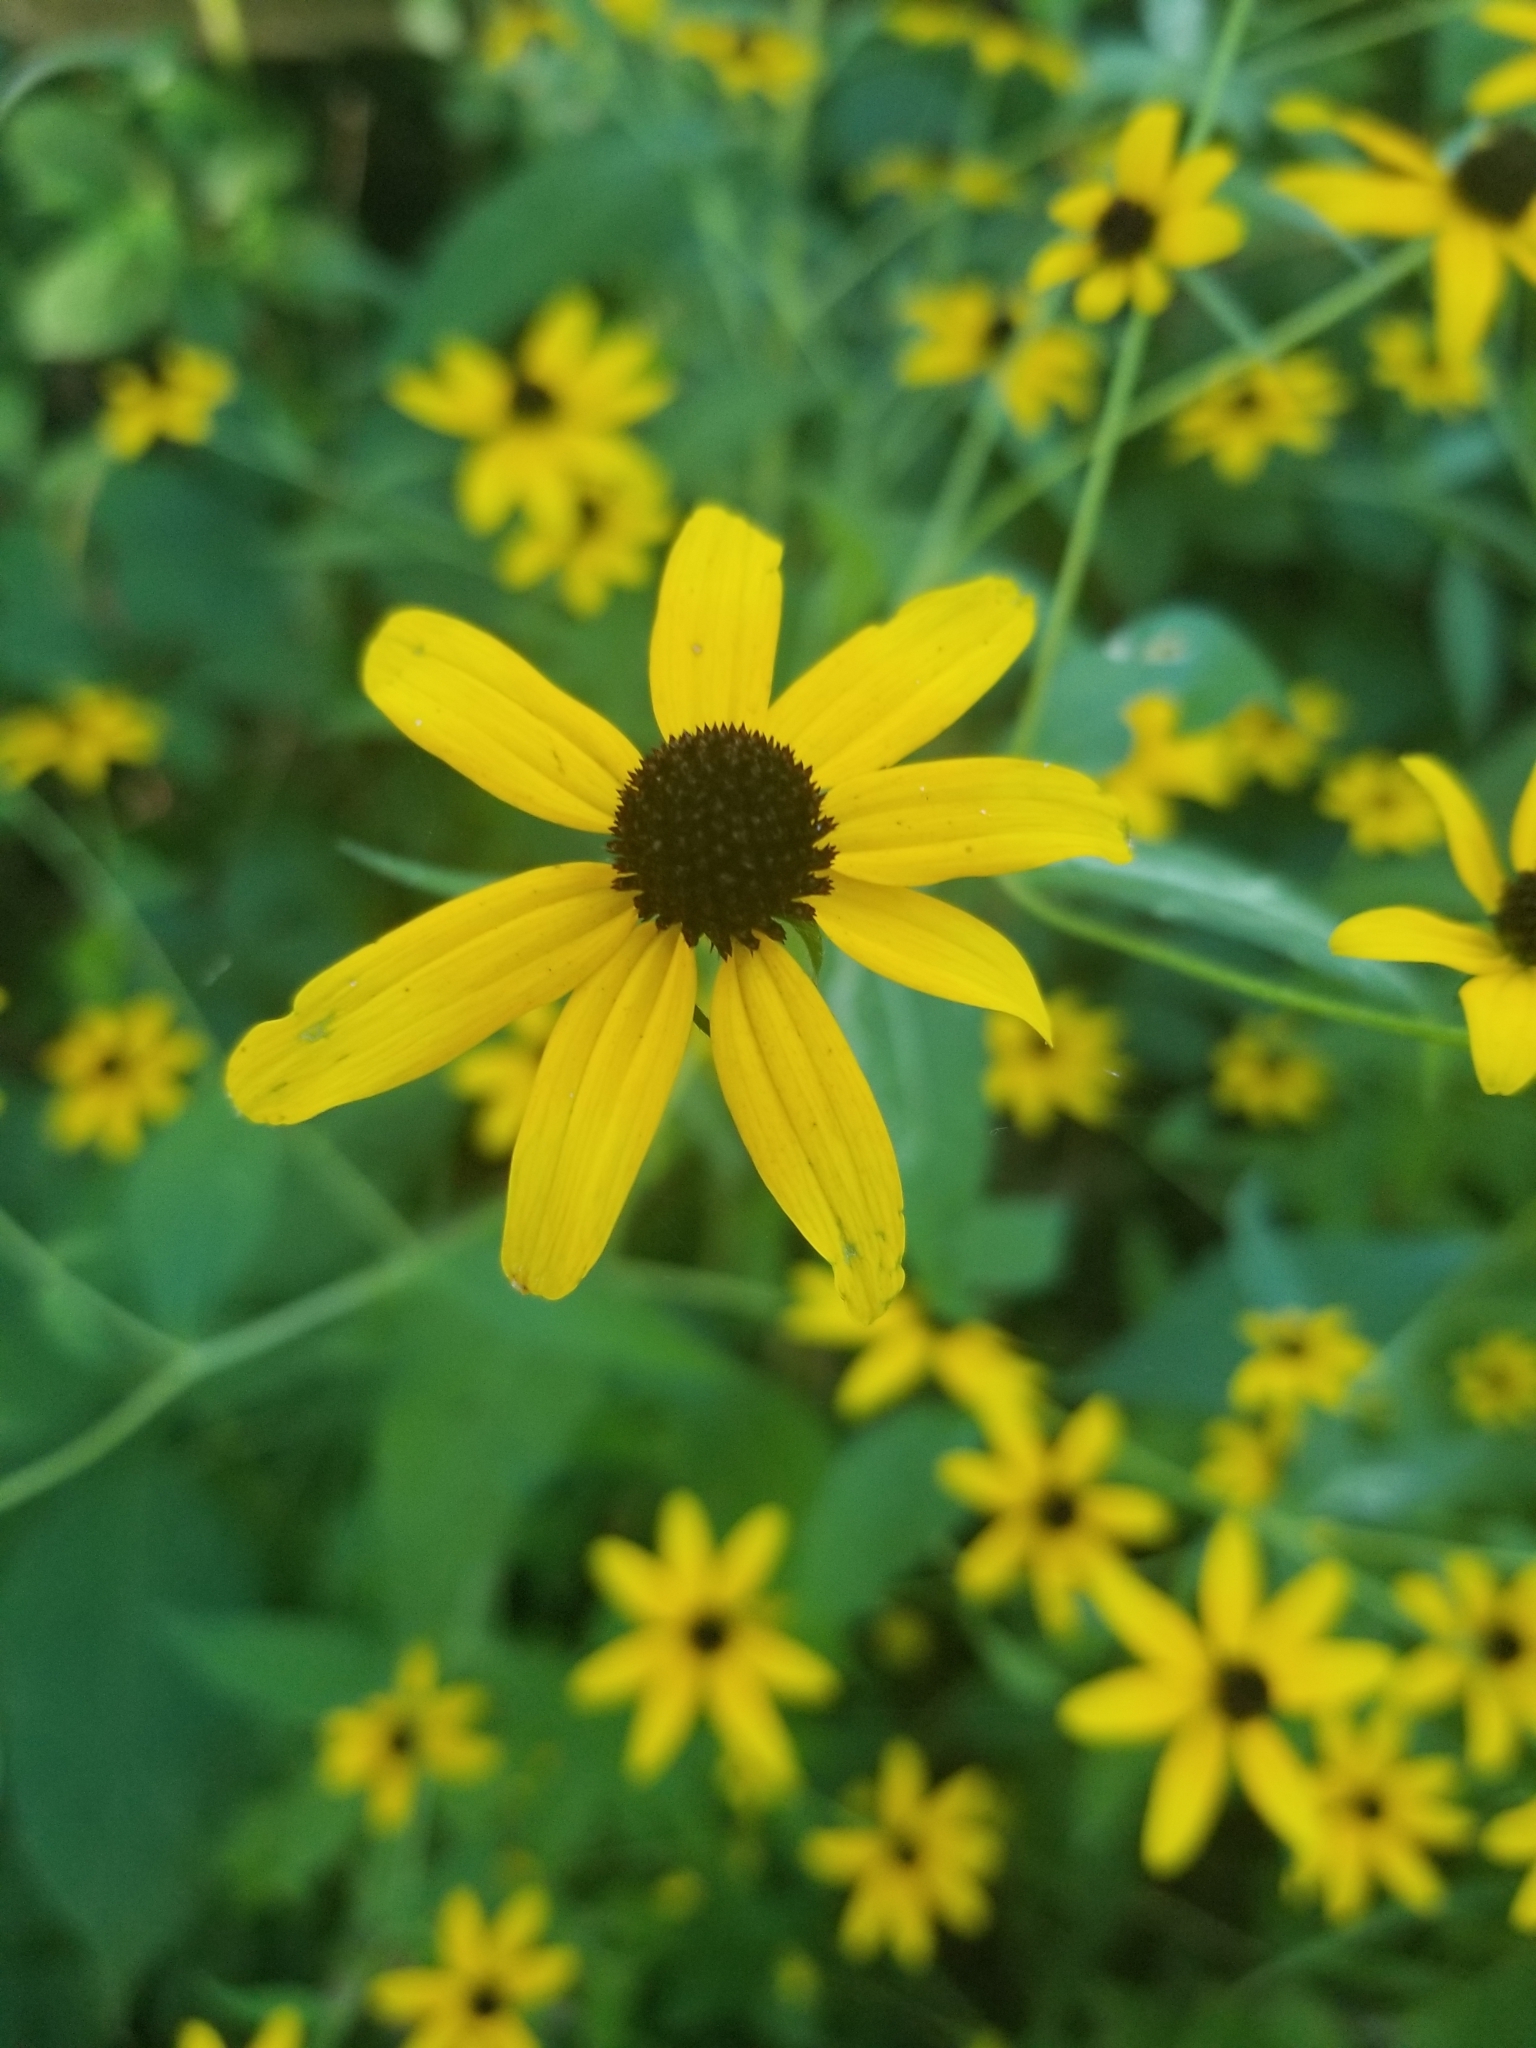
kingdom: Plantae
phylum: Tracheophyta
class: Magnoliopsida
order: Asterales
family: Asteraceae
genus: Rudbeckia
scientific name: Rudbeckia triloba
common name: Thin-leaved coneflower
